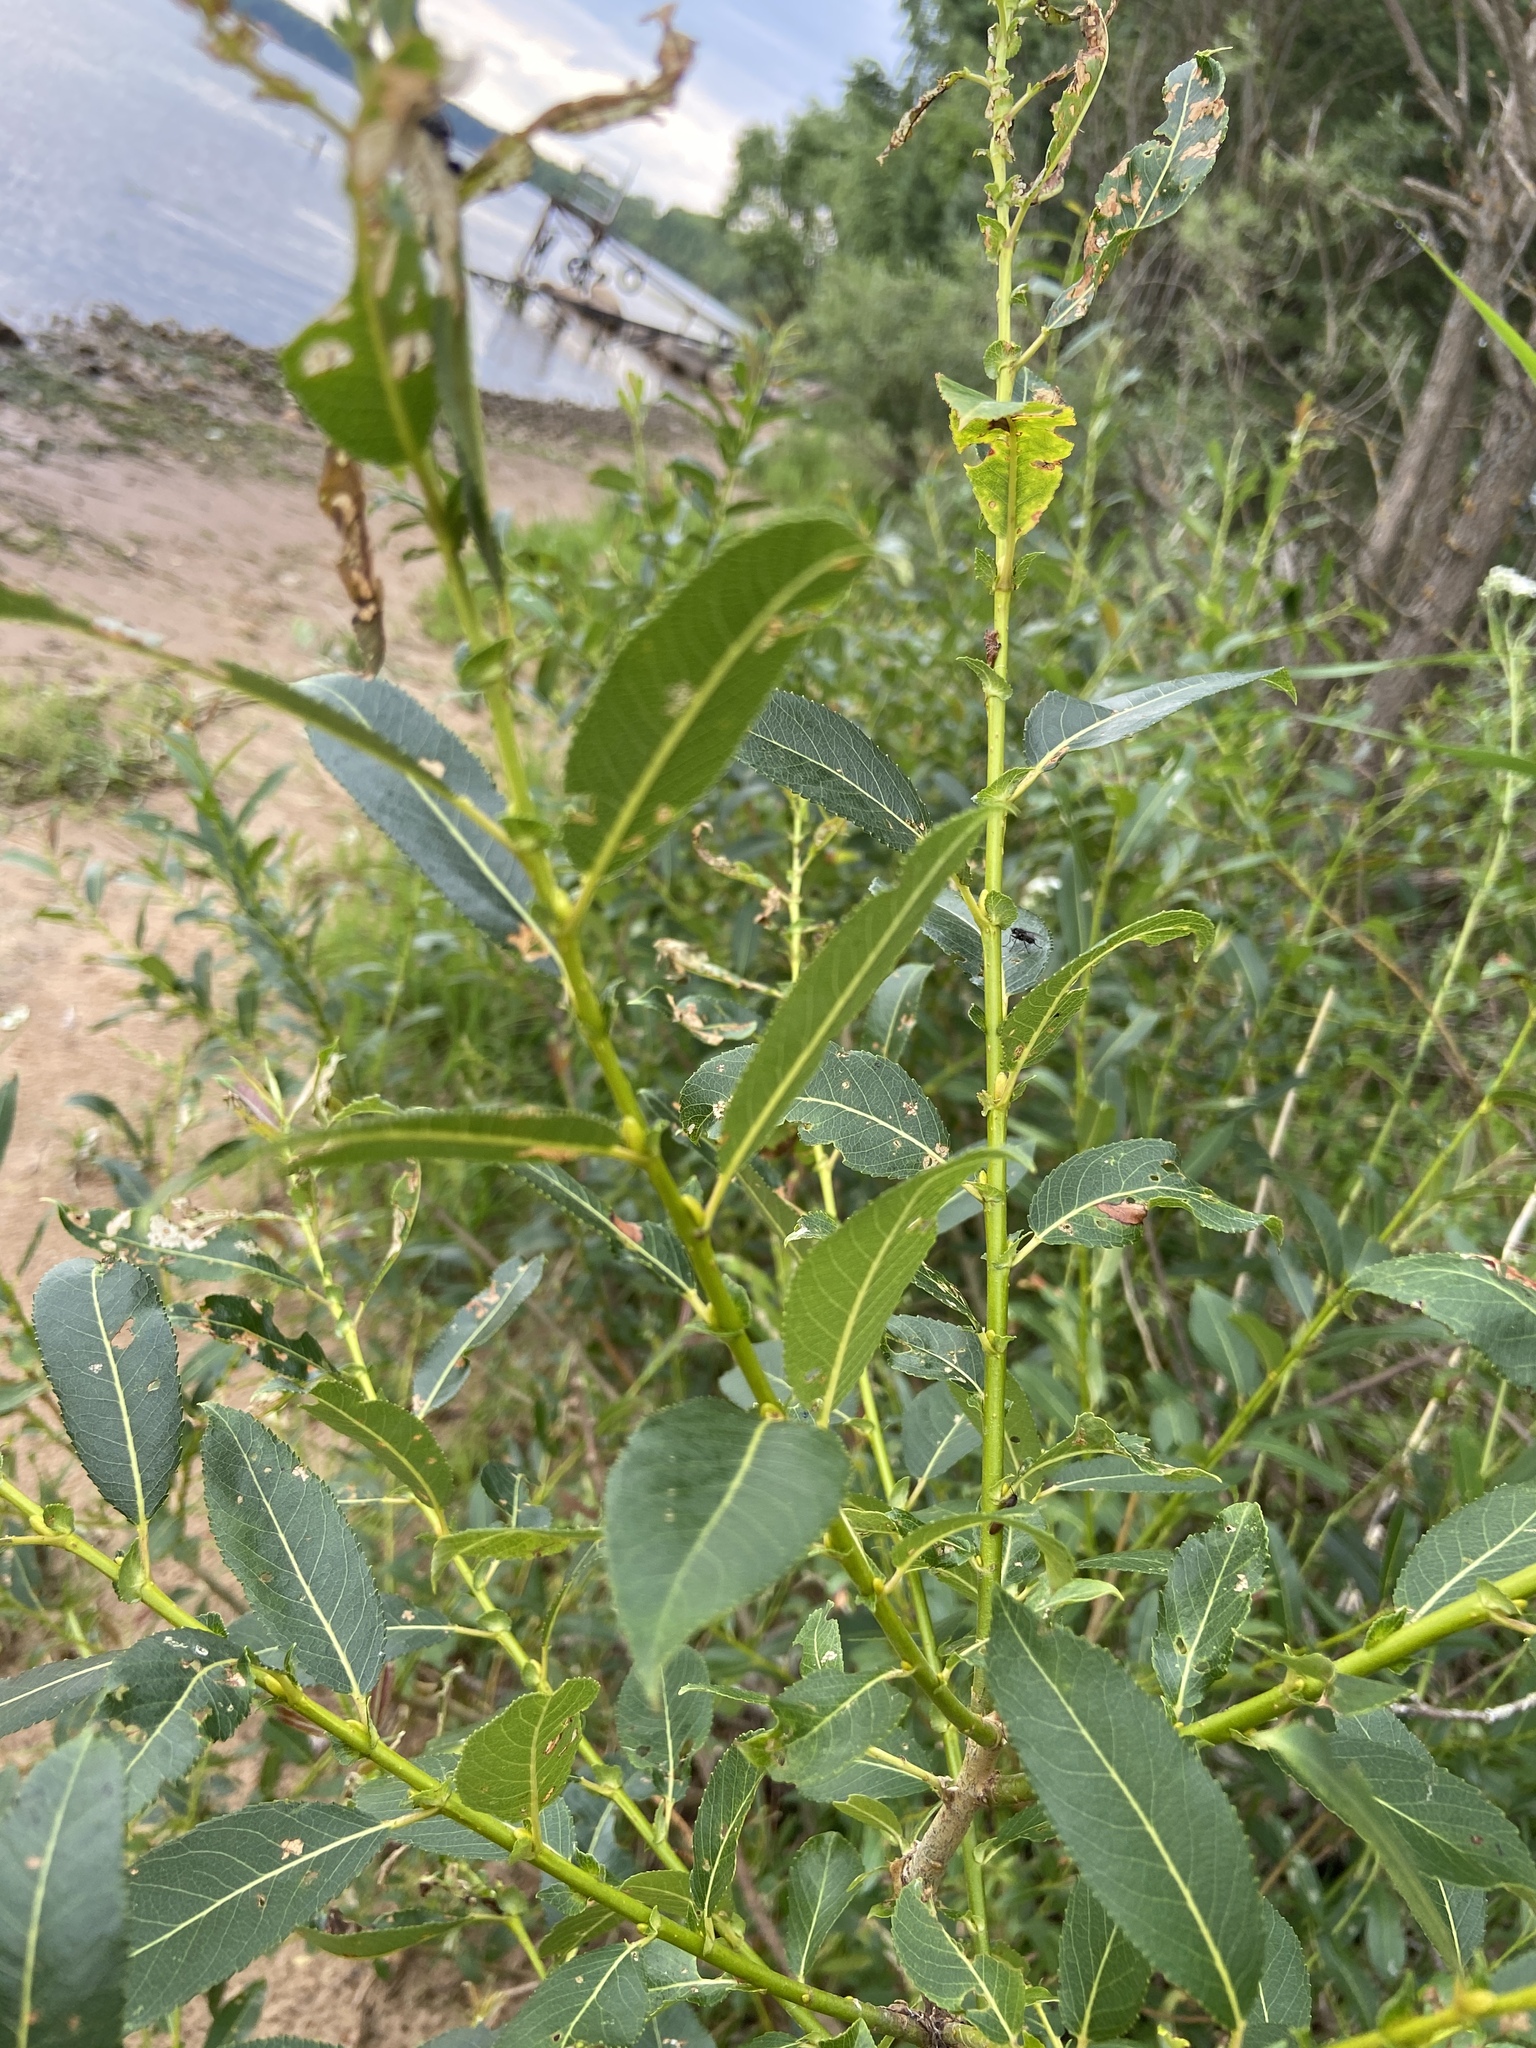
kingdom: Plantae
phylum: Tracheophyta
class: Magnoliopsida
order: Malpighiales
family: Salicaceae
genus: Salix
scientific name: Salix triandra
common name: Almond willow
